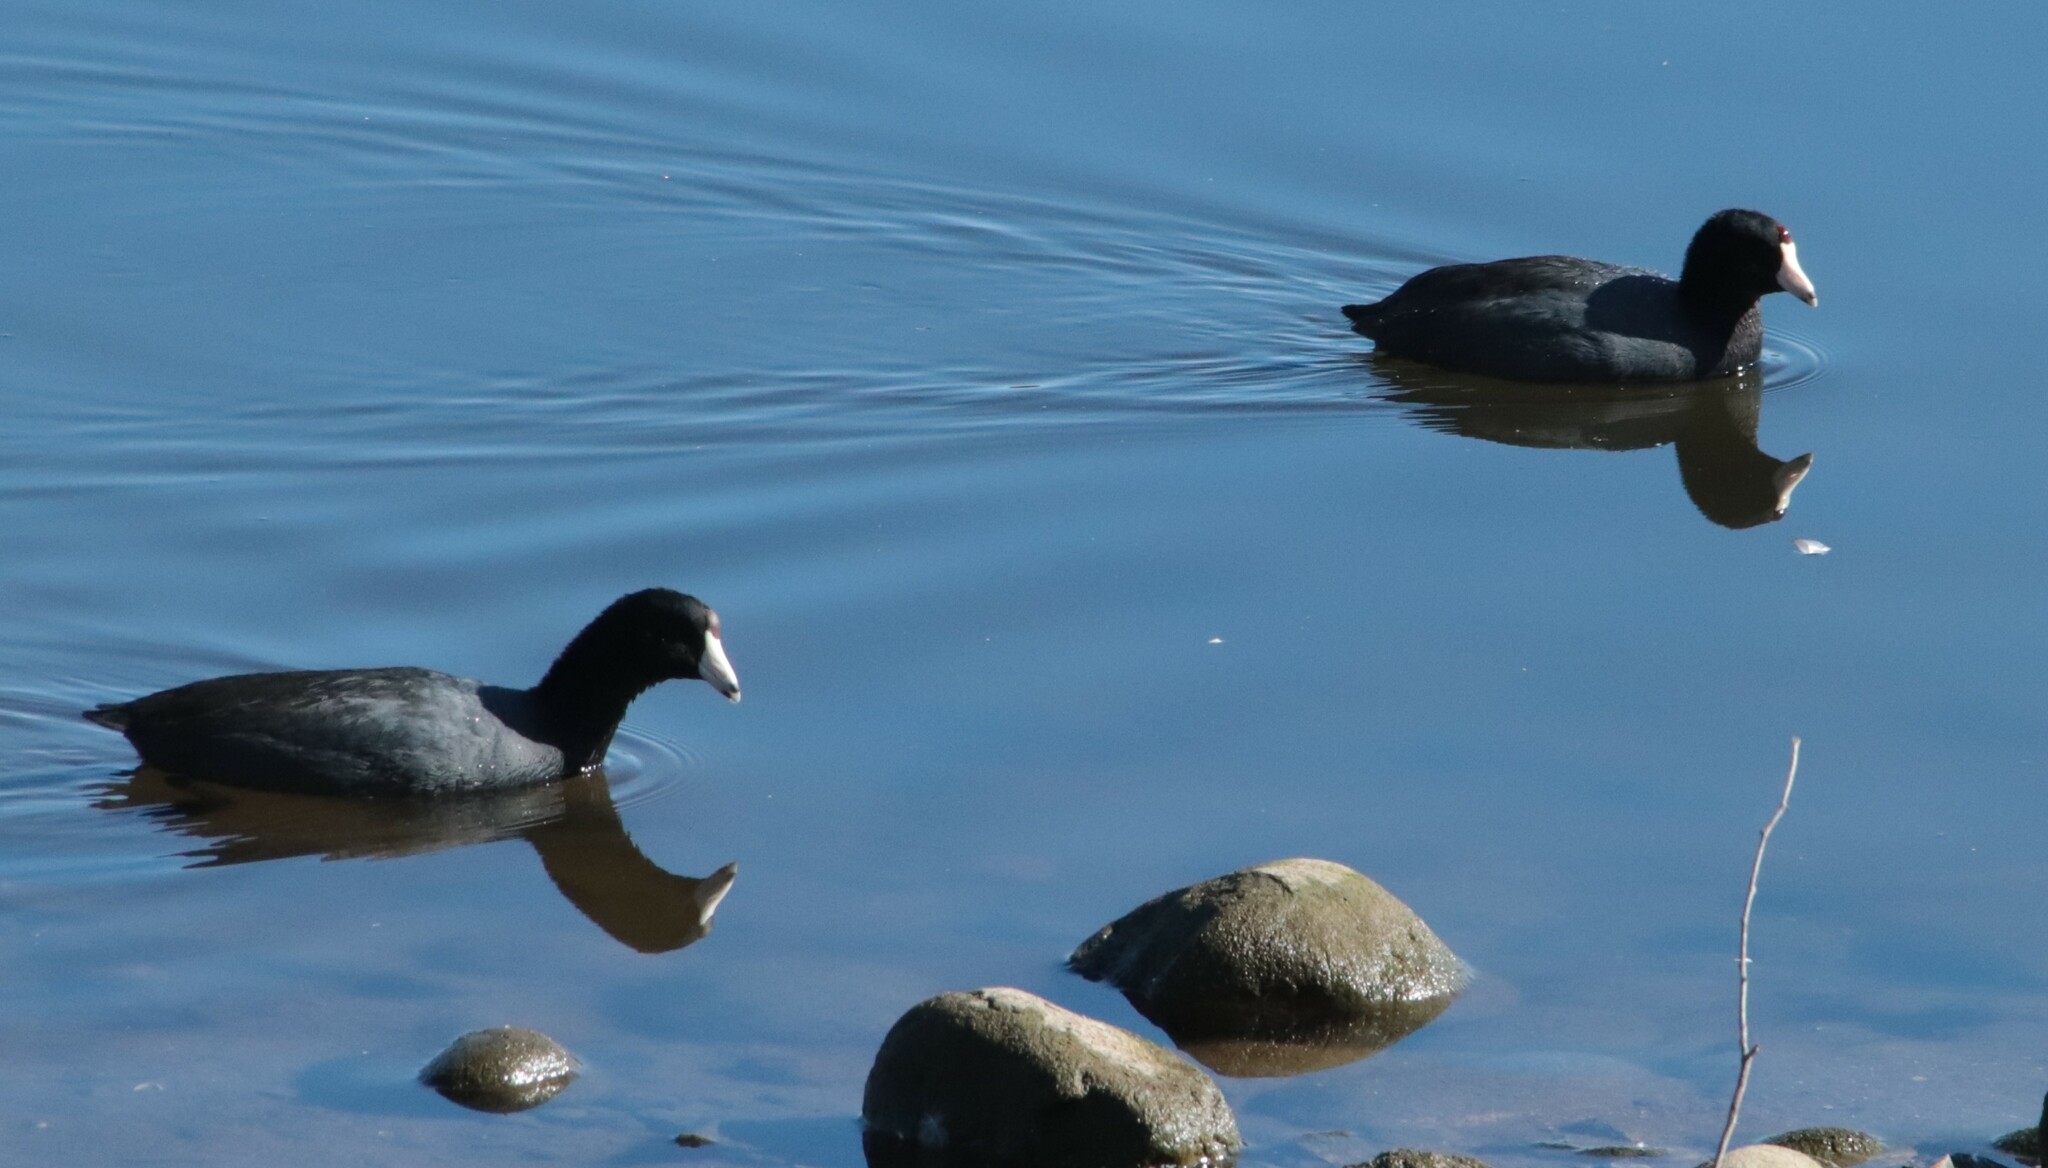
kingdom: Animalia
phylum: Chordata
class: Aves
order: Gruiformes
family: Rallidae
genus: Fulica
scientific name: Fulica americana
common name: American coot
